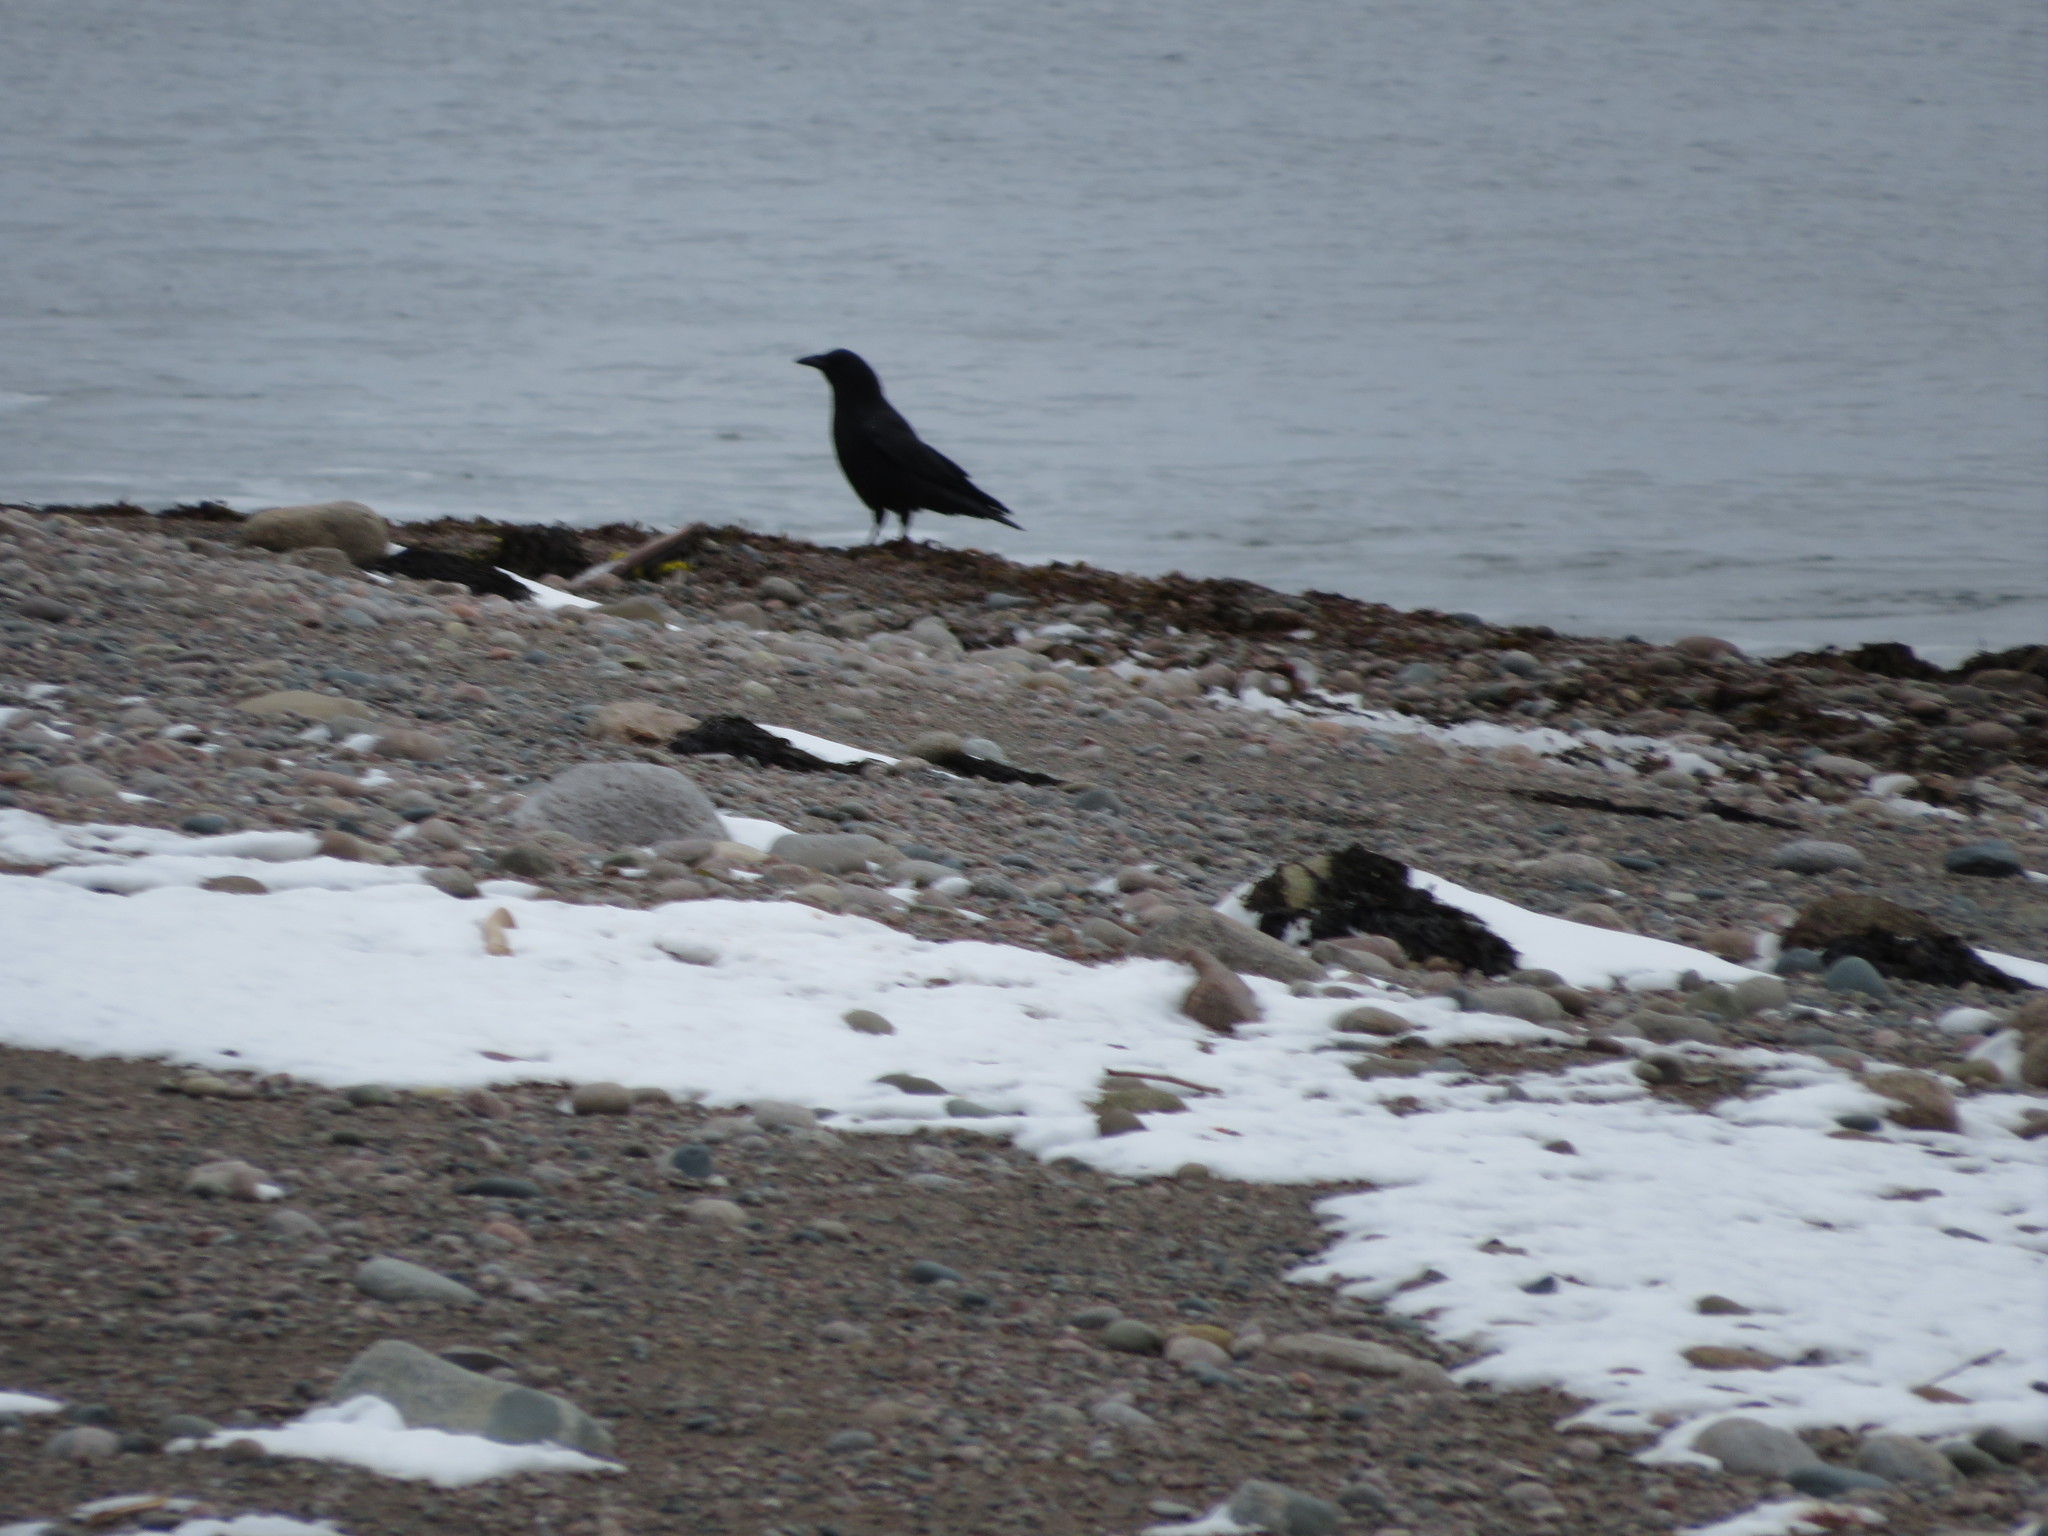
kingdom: Animalia
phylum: Chordata
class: Aves
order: Passeriformes
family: Corvidae
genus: Corvus
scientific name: Corvus brachyrhynchos
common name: American crow
